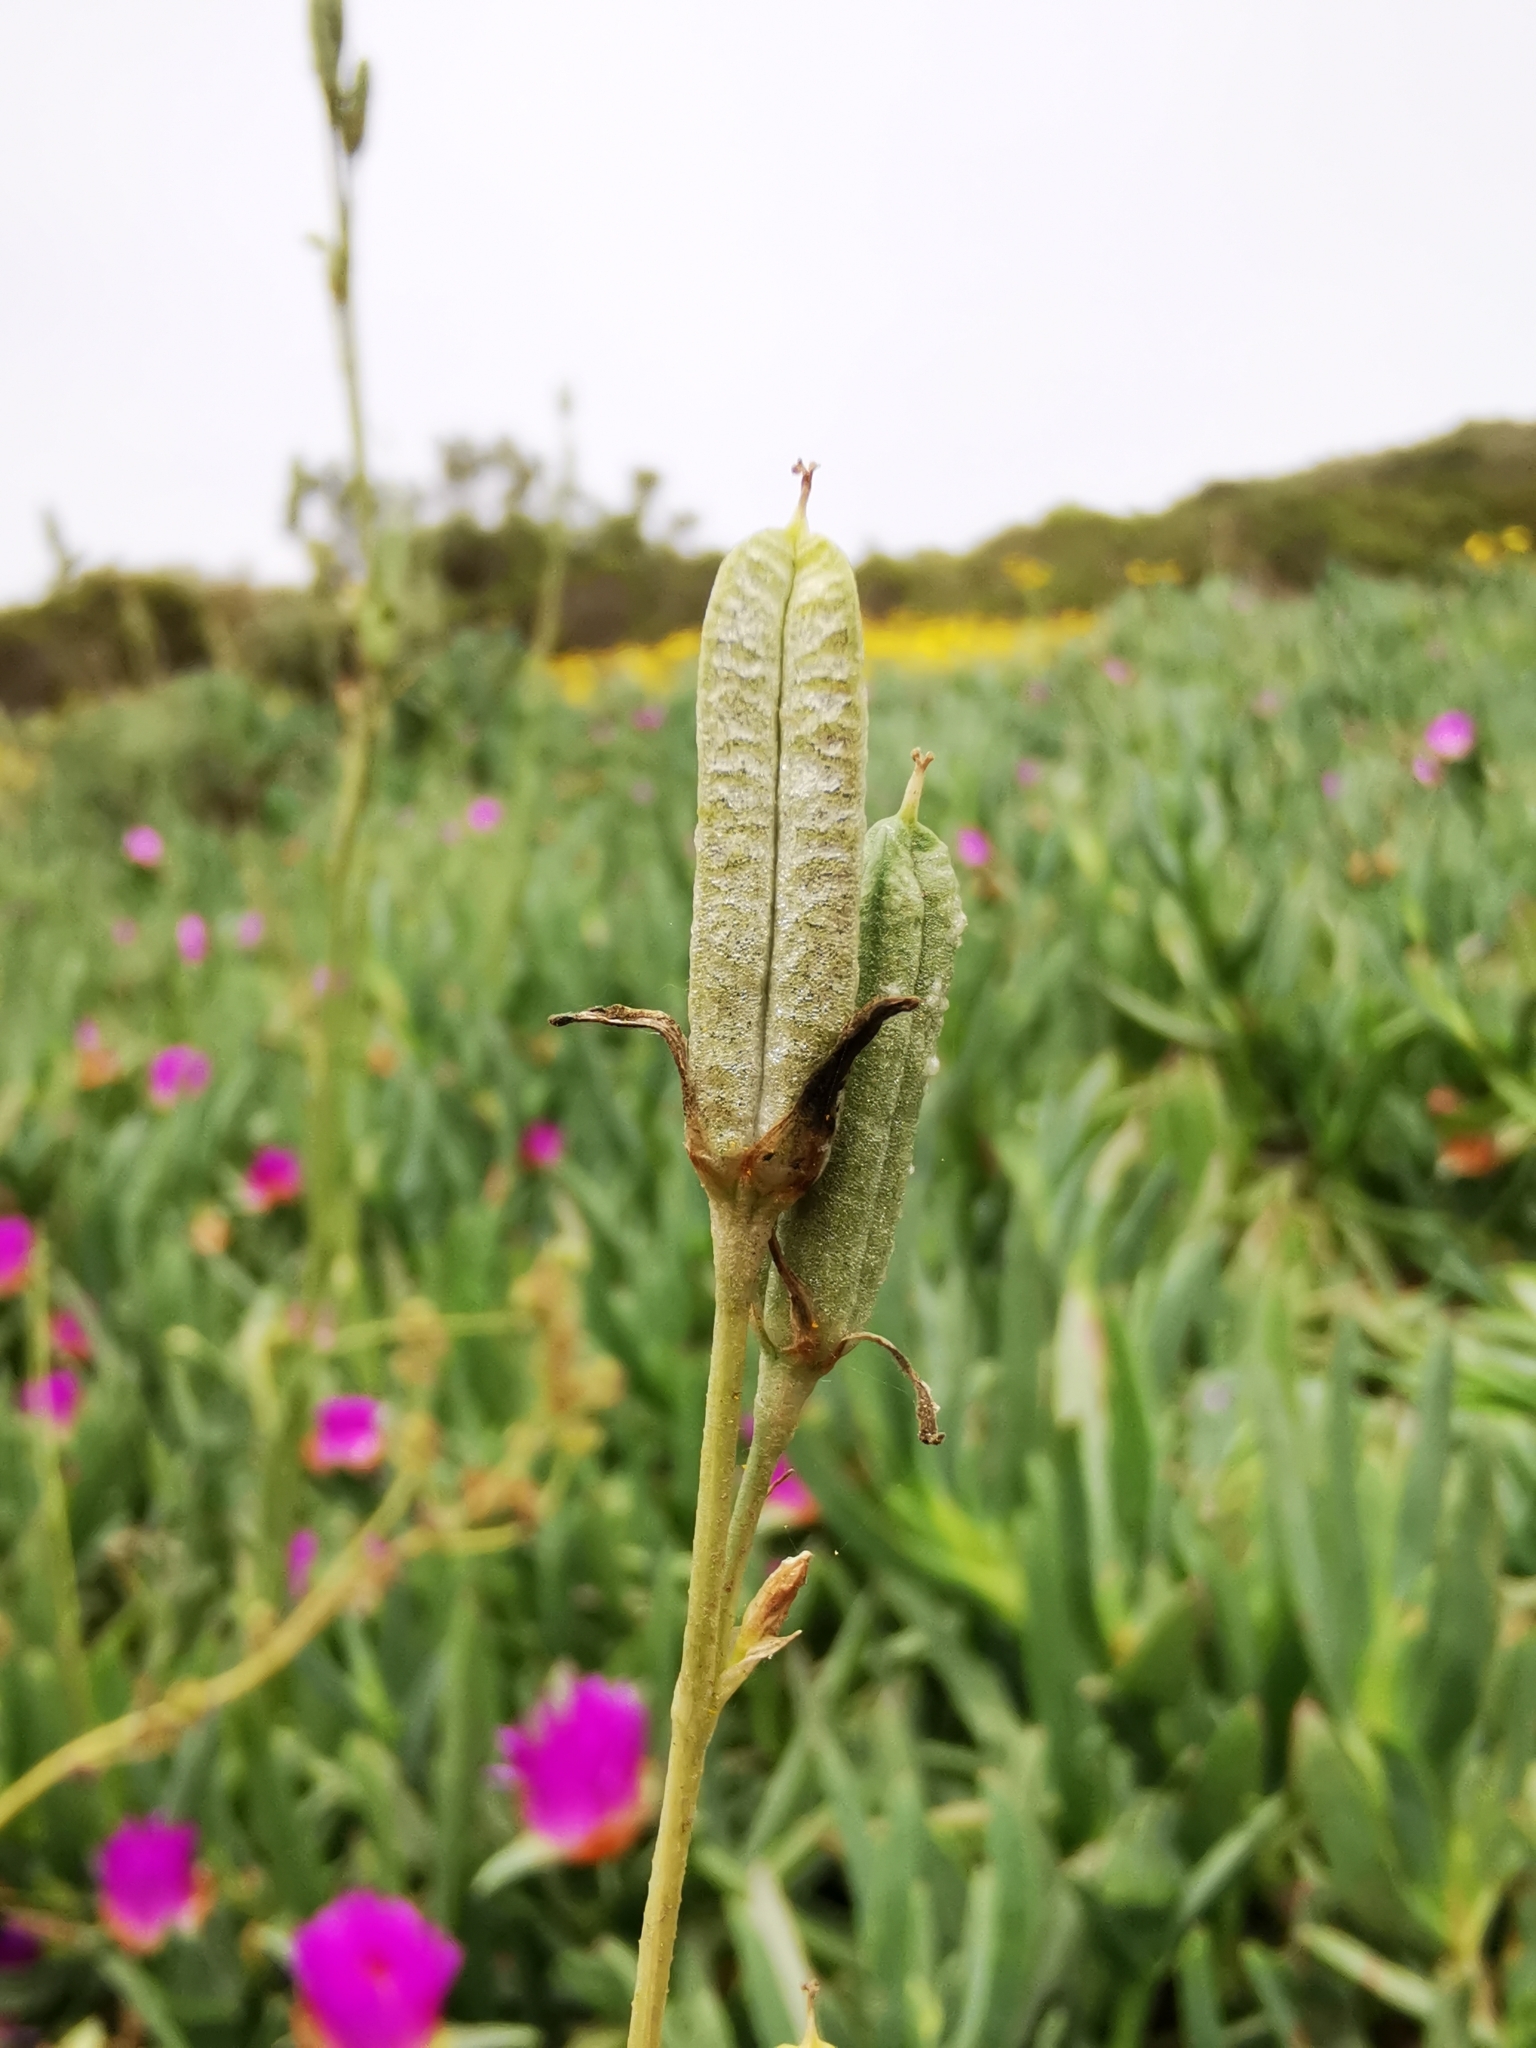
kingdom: Plantae
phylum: Tracheophyta
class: Liliopsida
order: Asparagales
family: Asparagaceae
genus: Trichopetalum
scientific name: Trichopetalum plumosum
